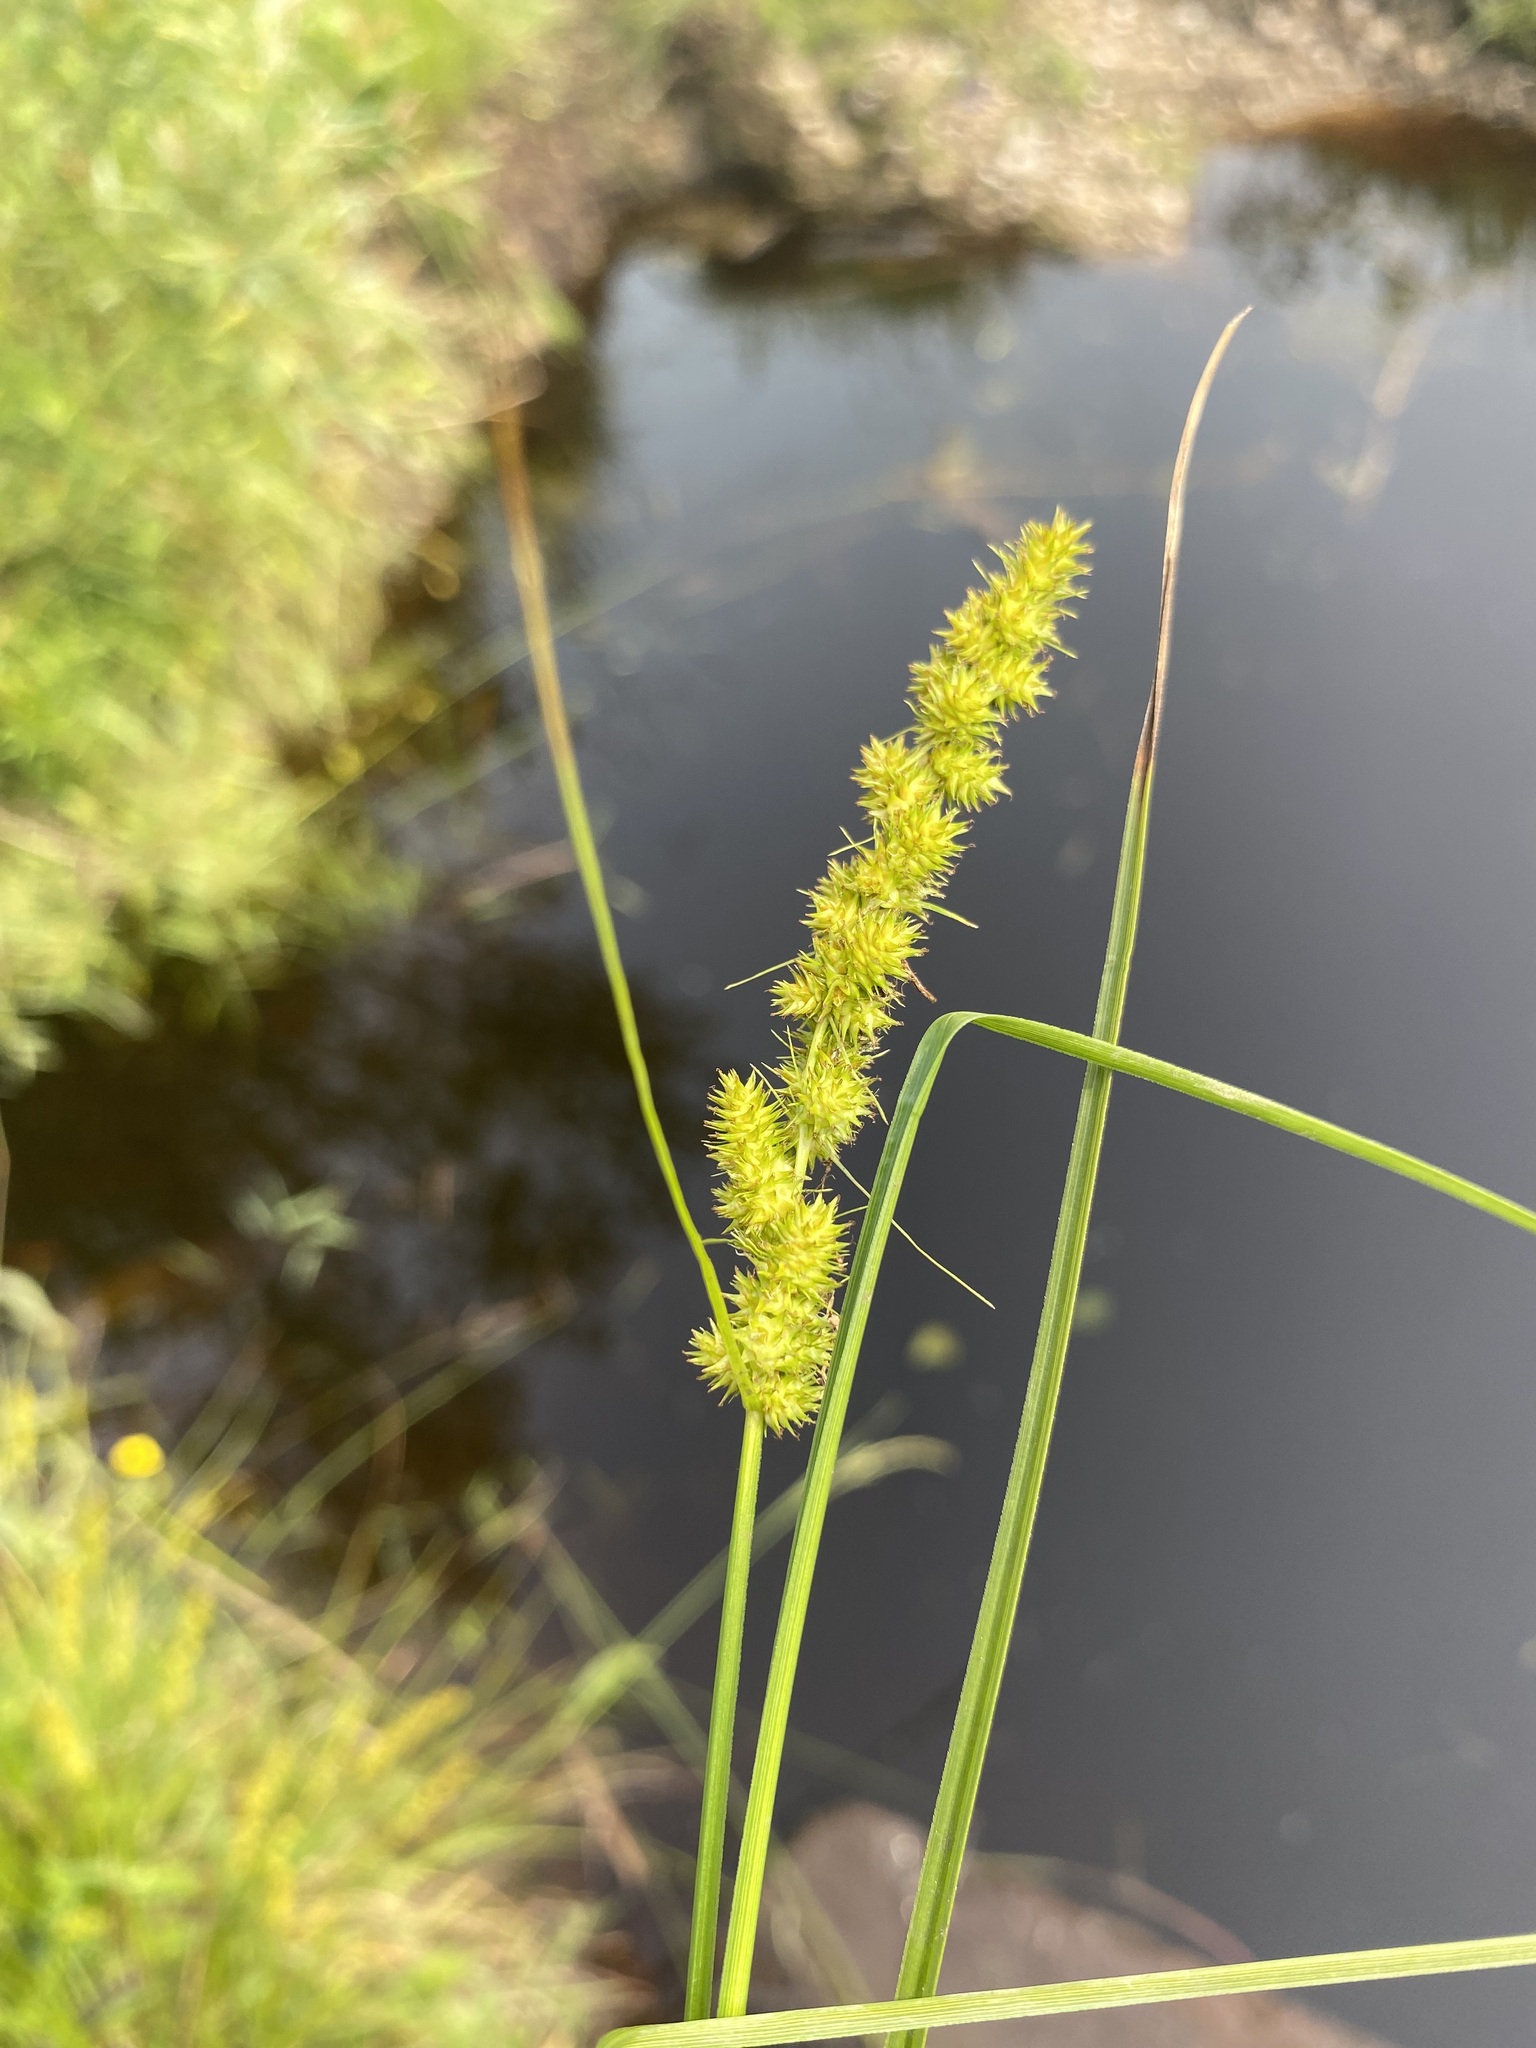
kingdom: Plantae
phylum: Tracheophyta
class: Liliopsida
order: Poales
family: Cyperaceae
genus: Carex
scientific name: Carex vulpinoidea
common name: American fox-sedge
